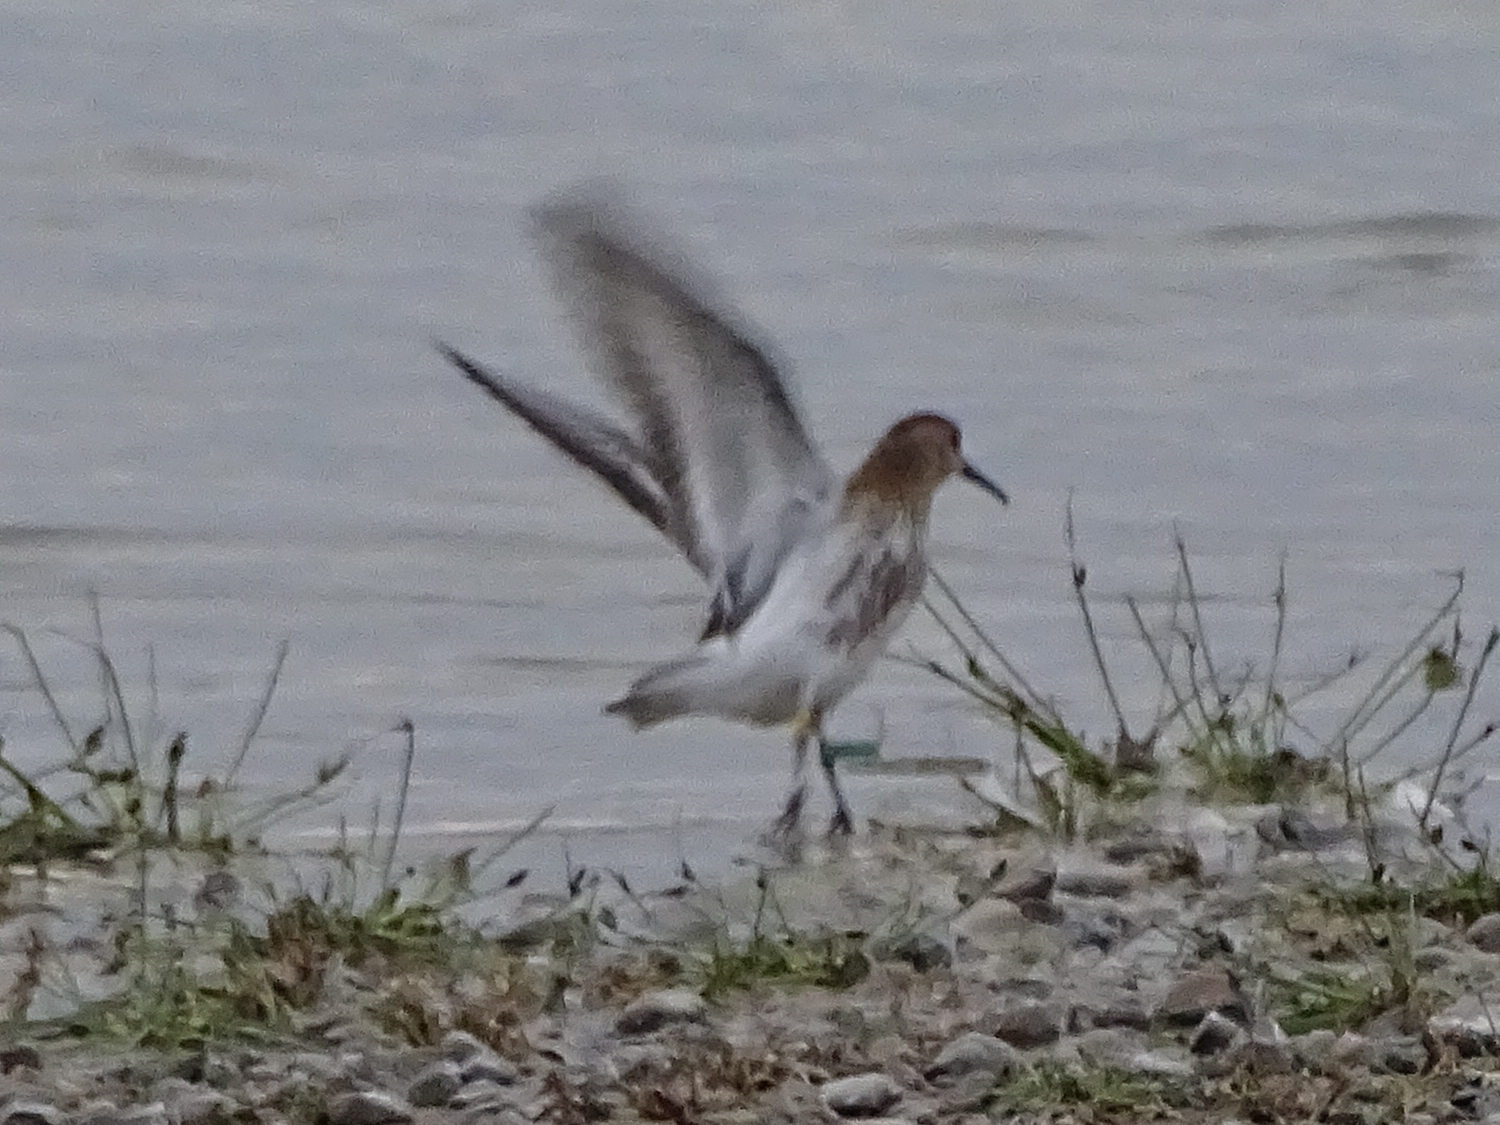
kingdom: Animalia
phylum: Chordata
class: Aves
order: Charadriiformes
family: Scolopacidae
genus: Calidris
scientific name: Calidris alpina
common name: Dunlin
